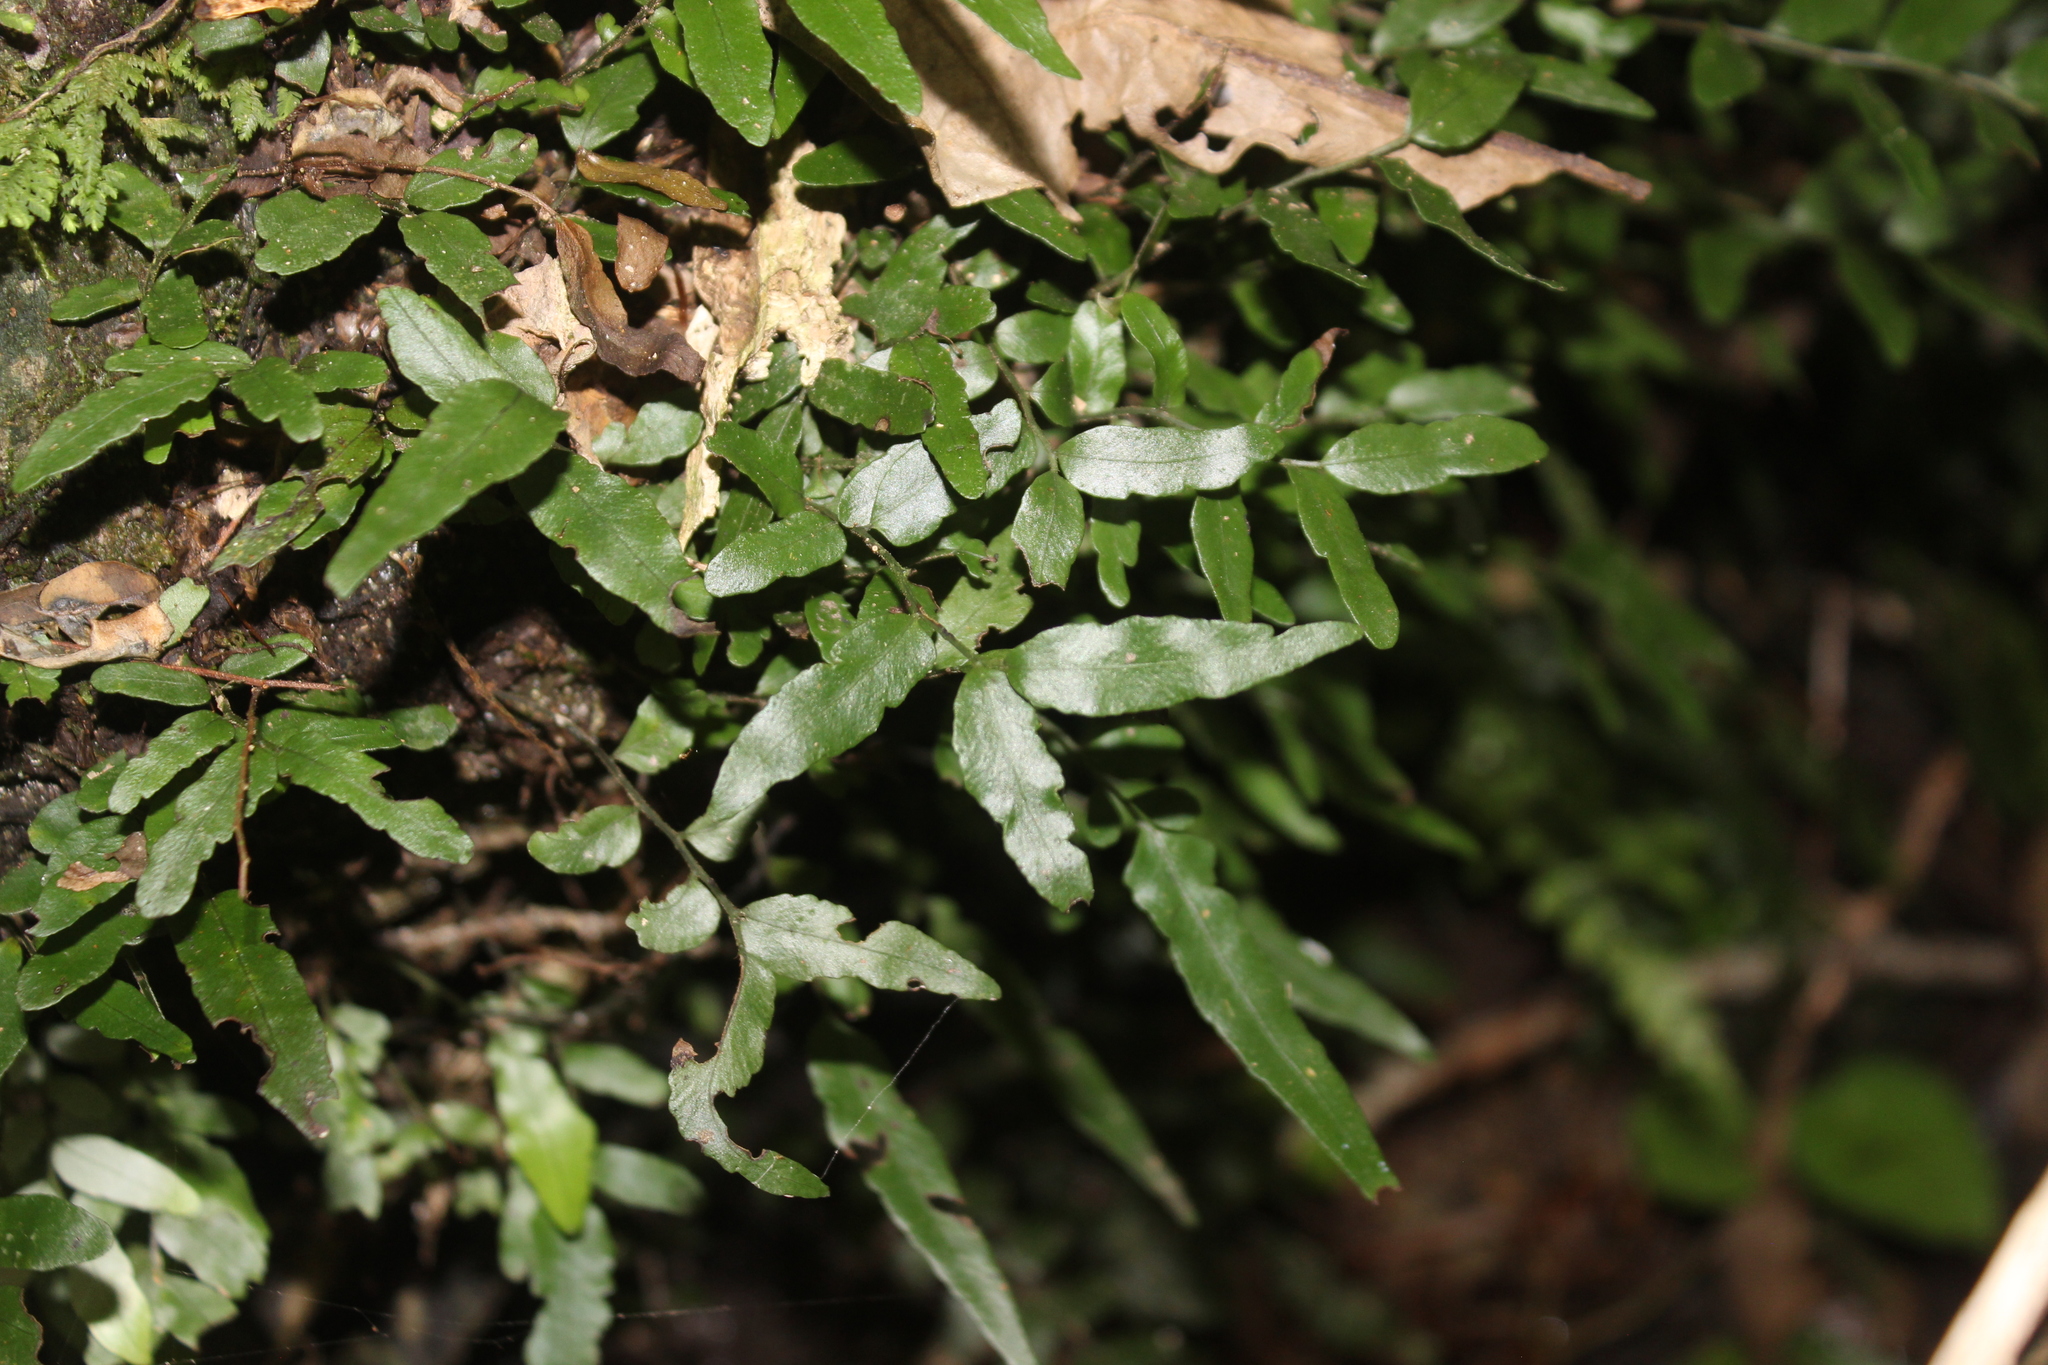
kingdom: Plantae
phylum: Tracheophyta
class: Polypodiopsida
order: Polypodiales
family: Tectariaceae
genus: Arthropteris
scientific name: Arthropteris tenella
